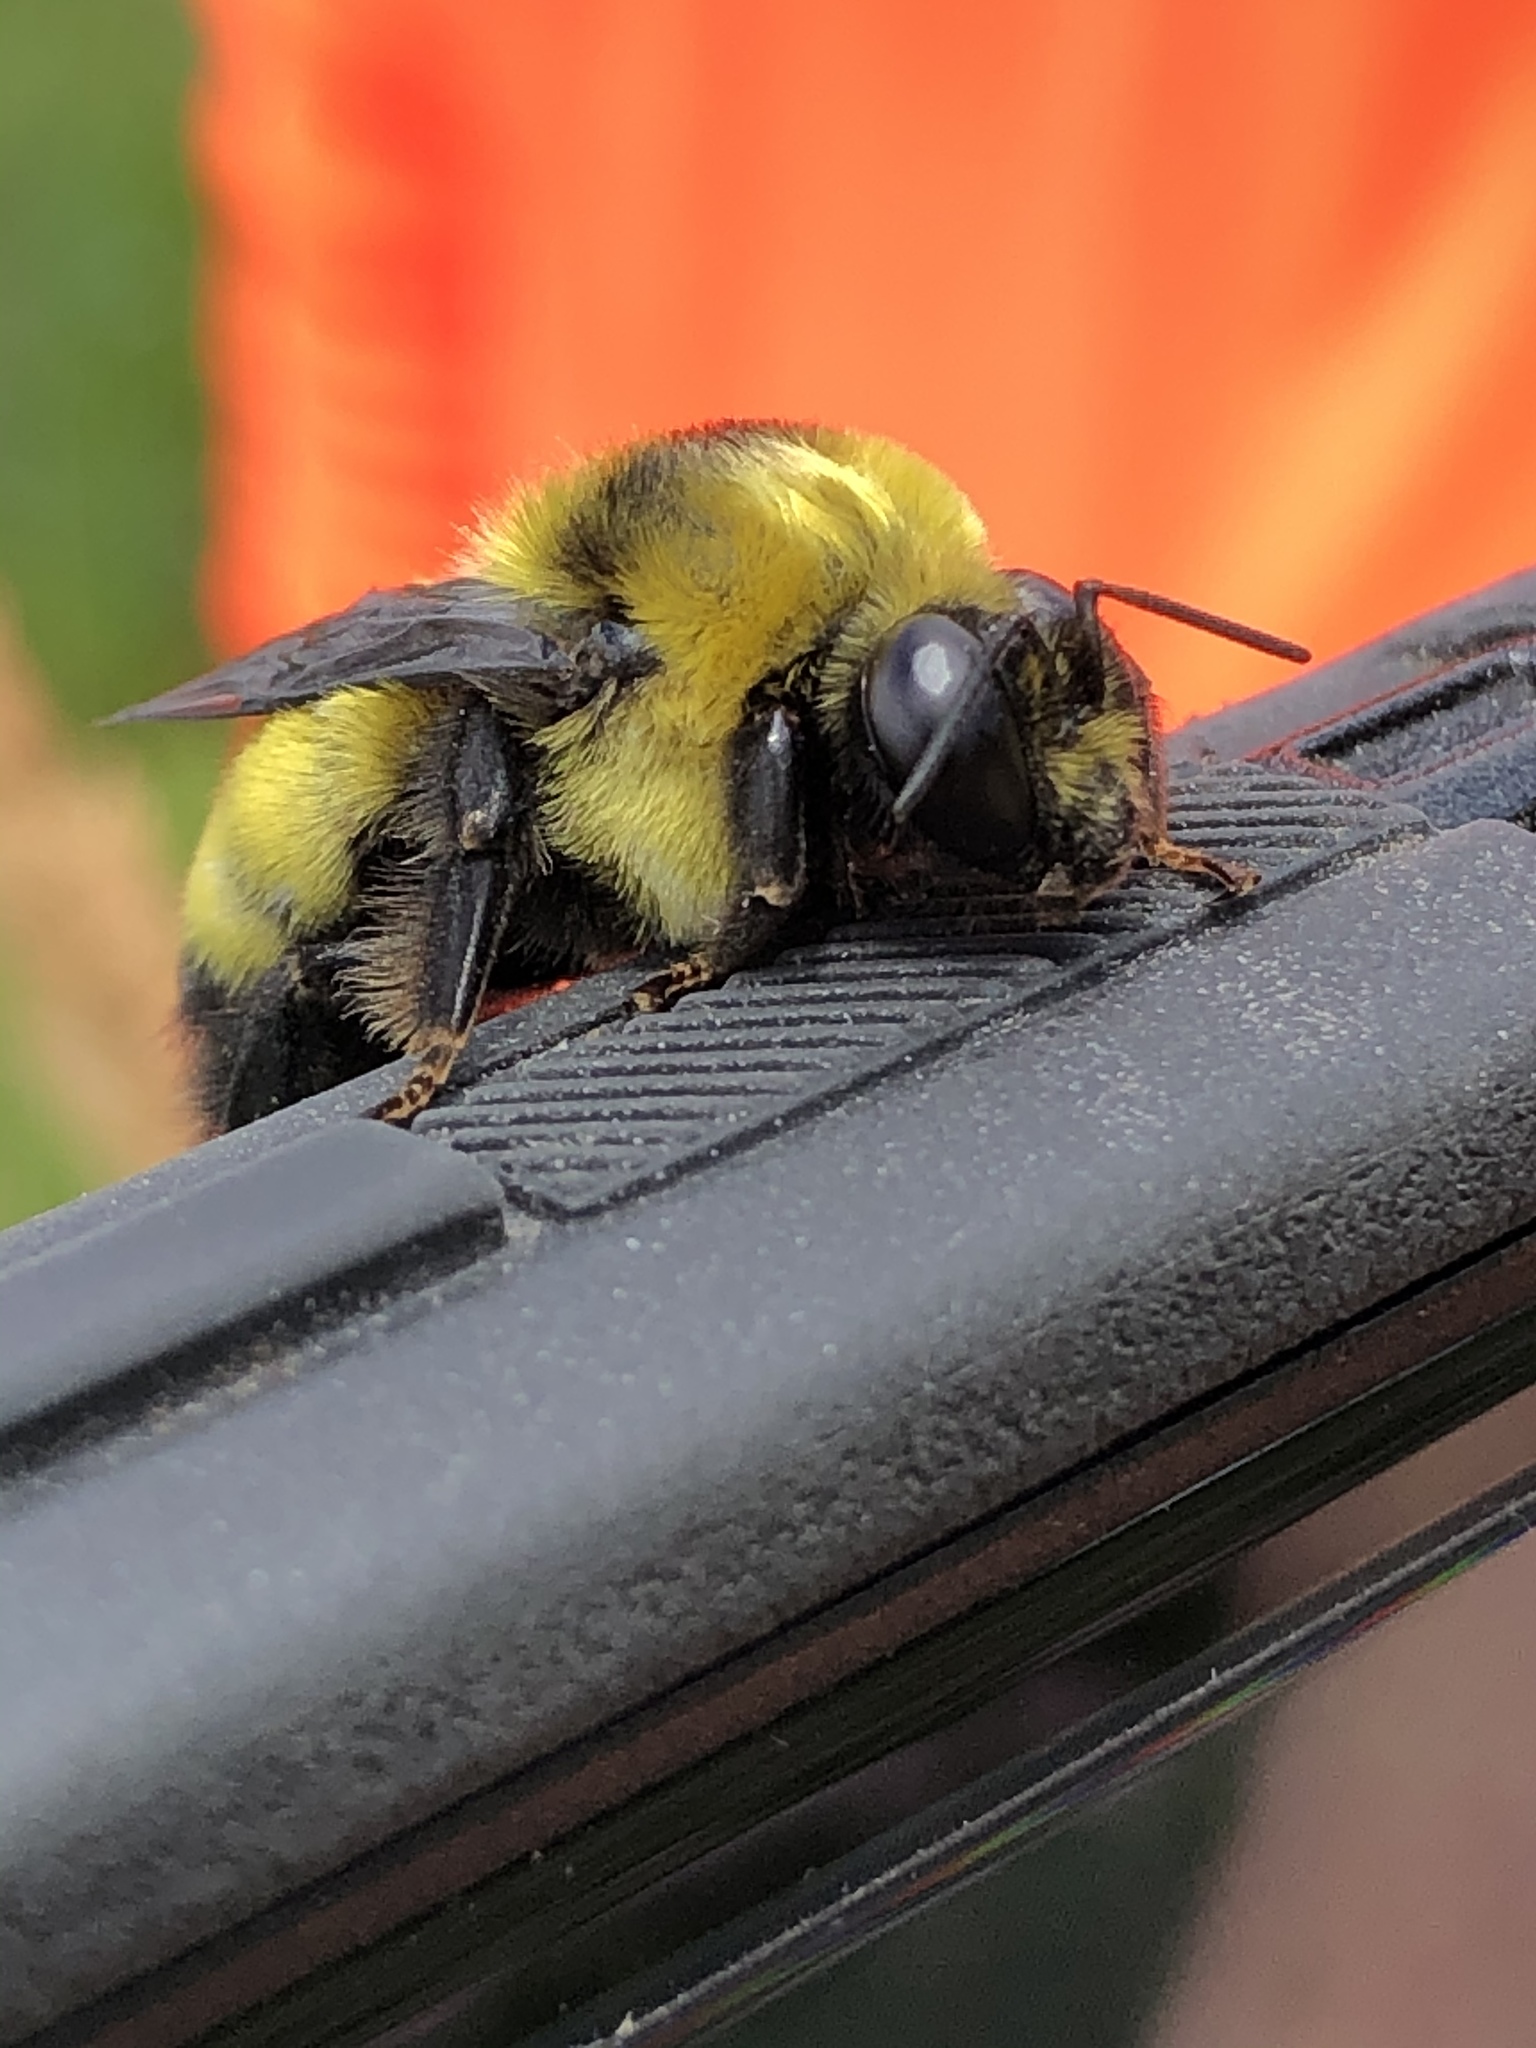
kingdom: Animalia
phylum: Arthropoda
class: Insecta
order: Hymenoptera
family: Apidae
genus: Bombus
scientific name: Bombus auricomus
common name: Black and gold bumble bee
